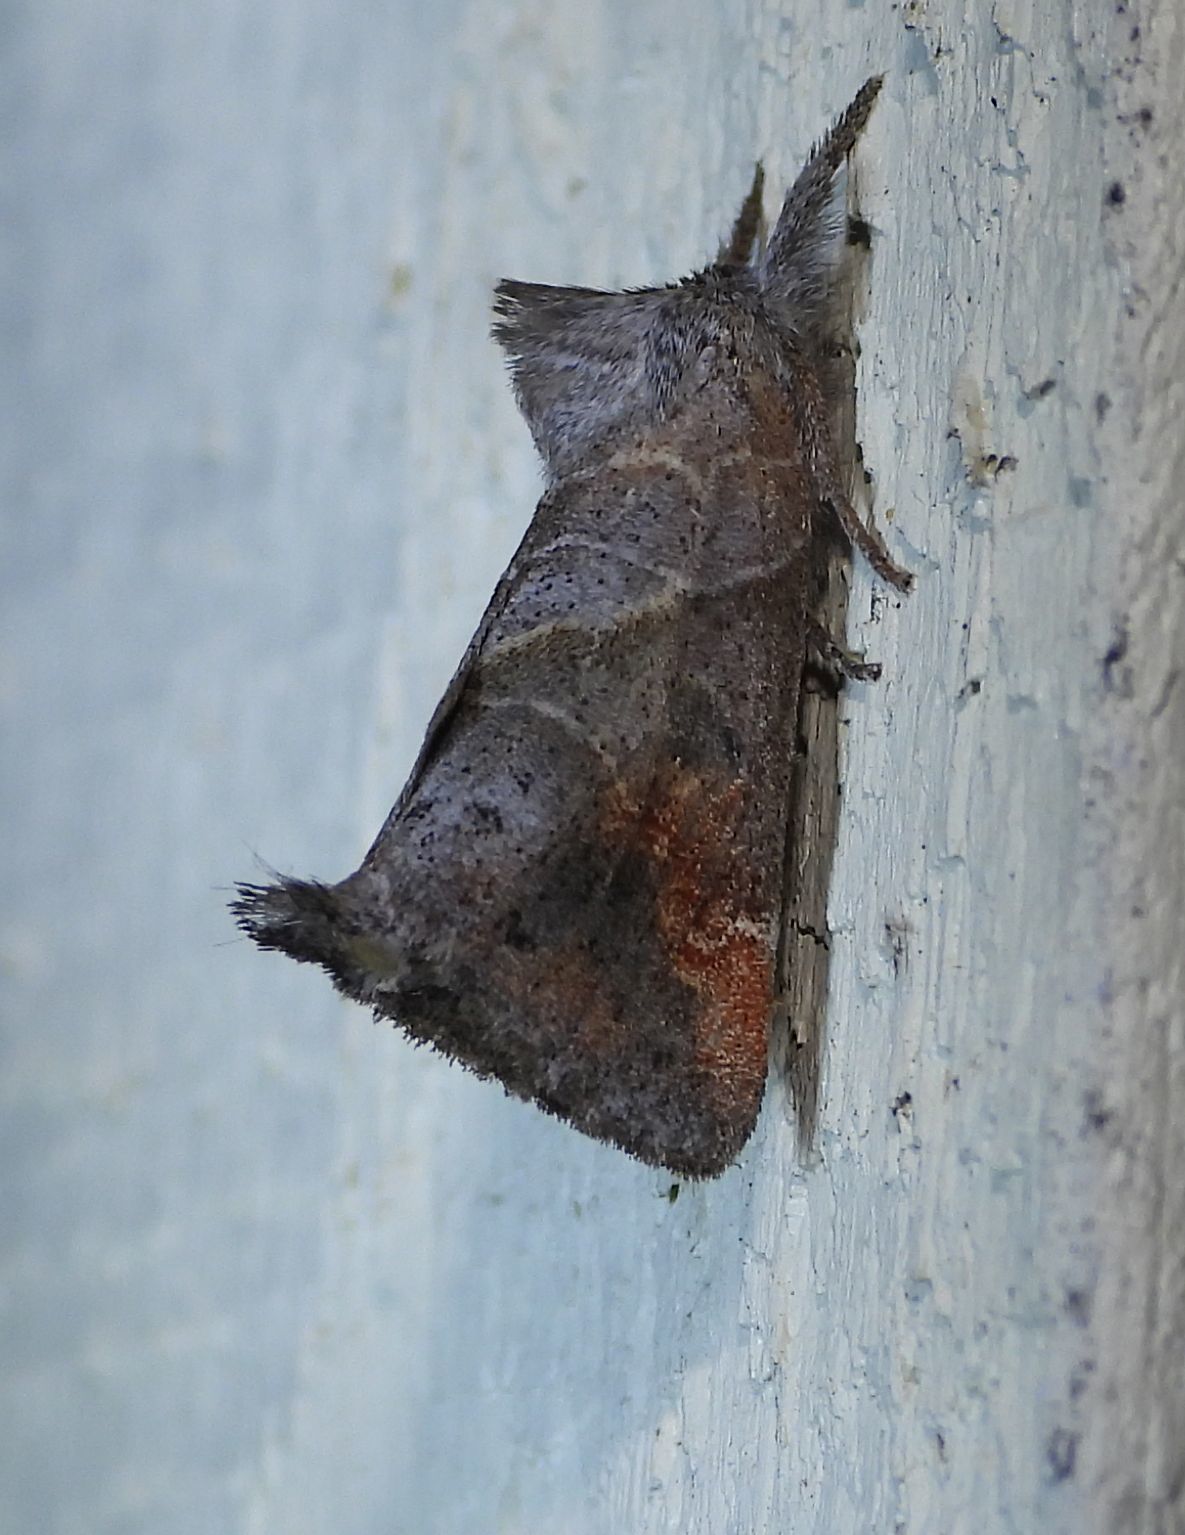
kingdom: Animalia
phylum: Arthropoda
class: Insecta
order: Lepidoptera
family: Notodontidae
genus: Clostera
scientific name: Clostera apicalis
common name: Apical prominent
